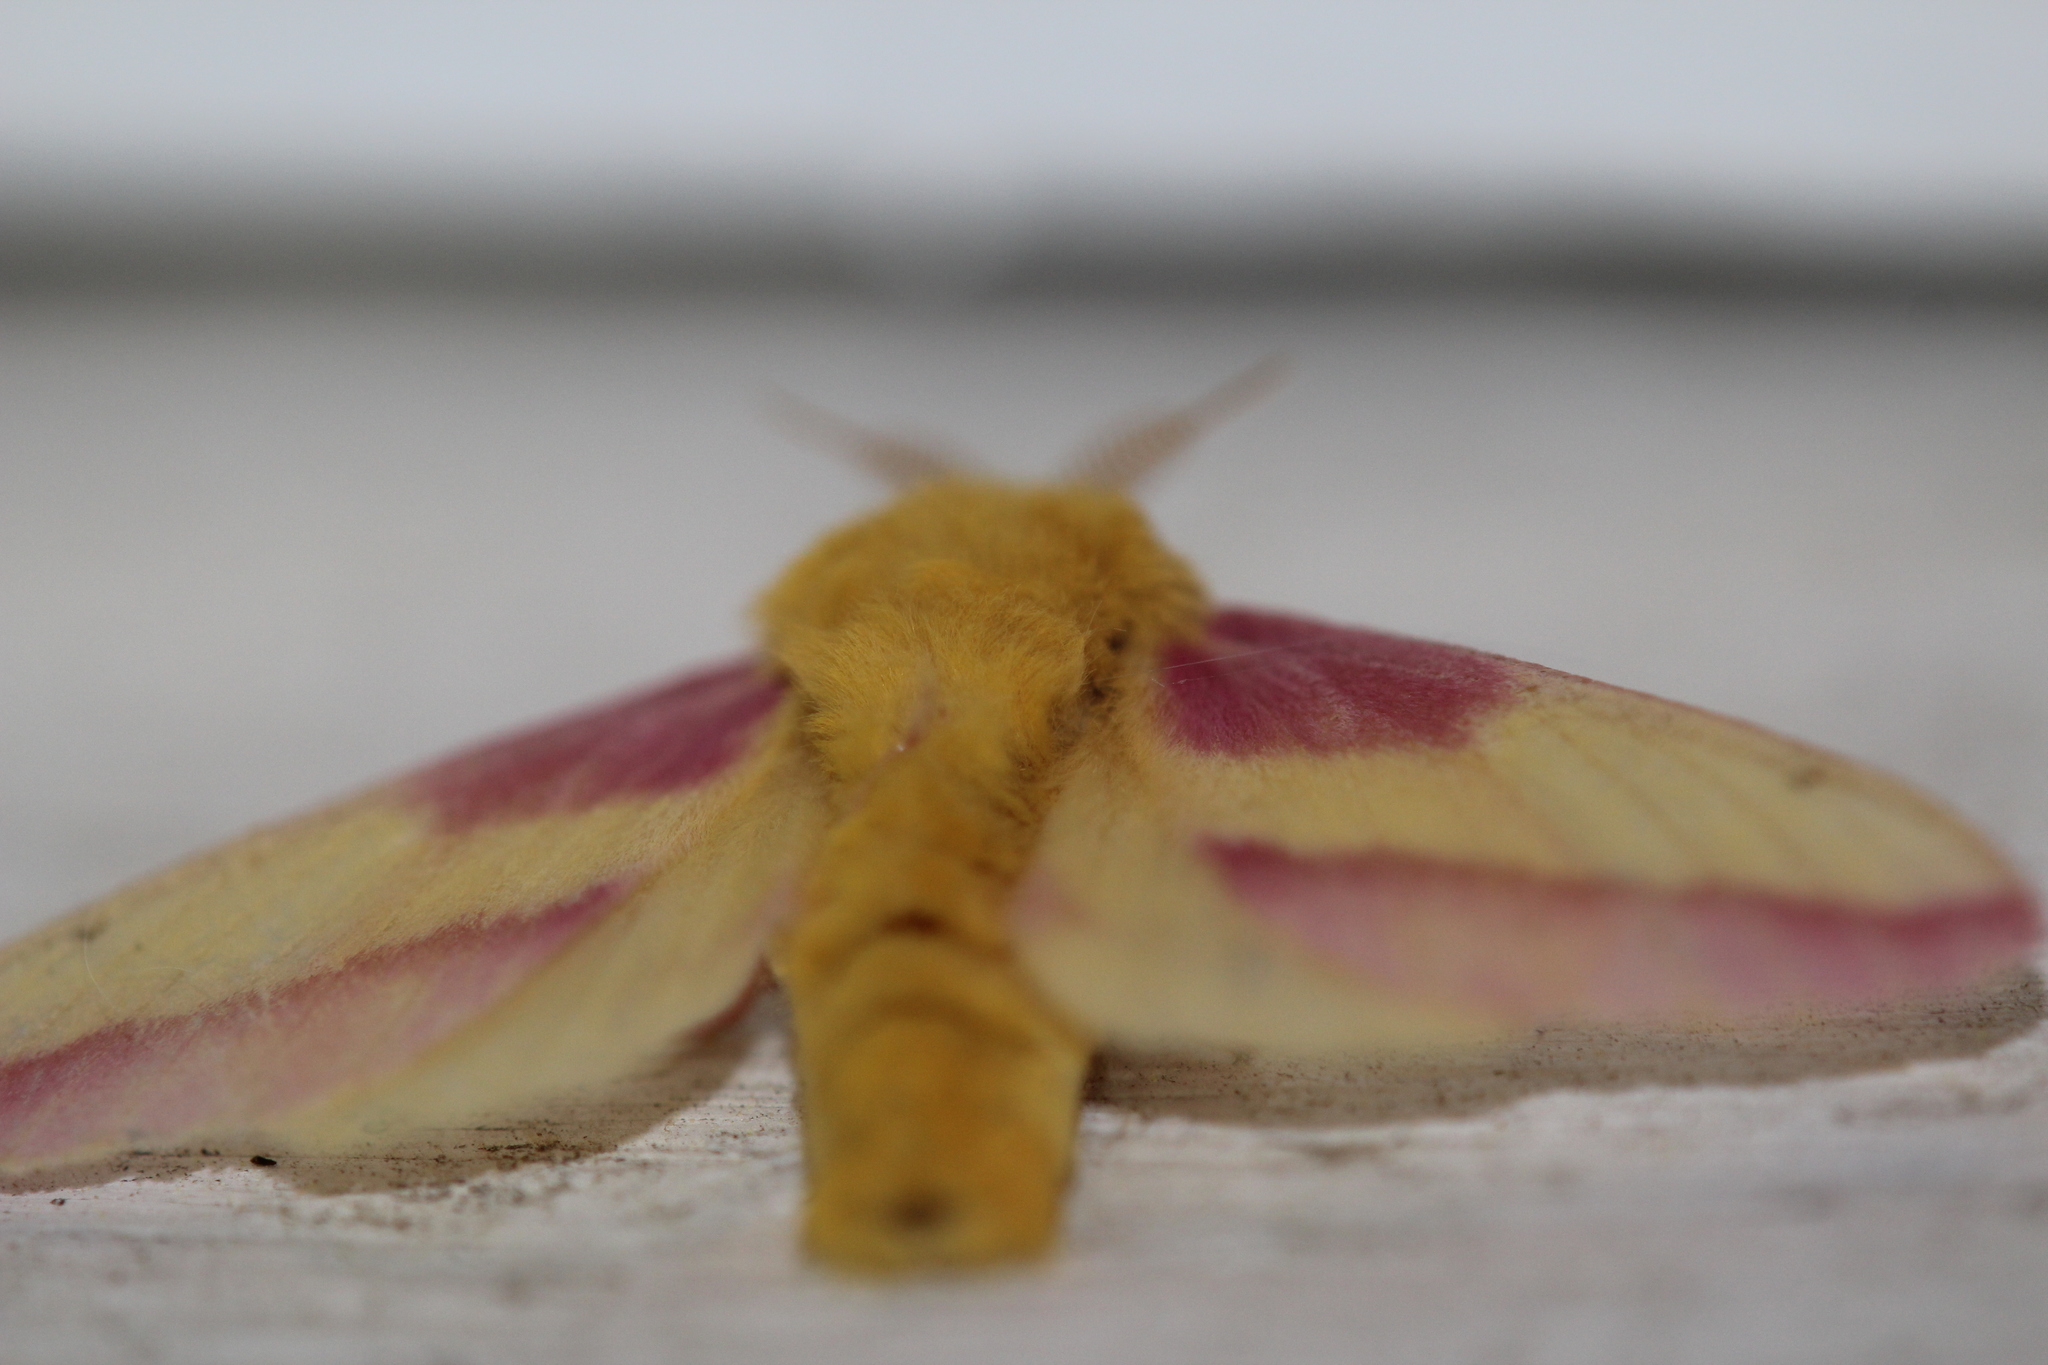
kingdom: Animalia
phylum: Arthropoda
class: Insecta
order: Lepidoptera
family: Saturniidae
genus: Dryocampa
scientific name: Dryocampa rubicunda
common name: Rosy maple moth
